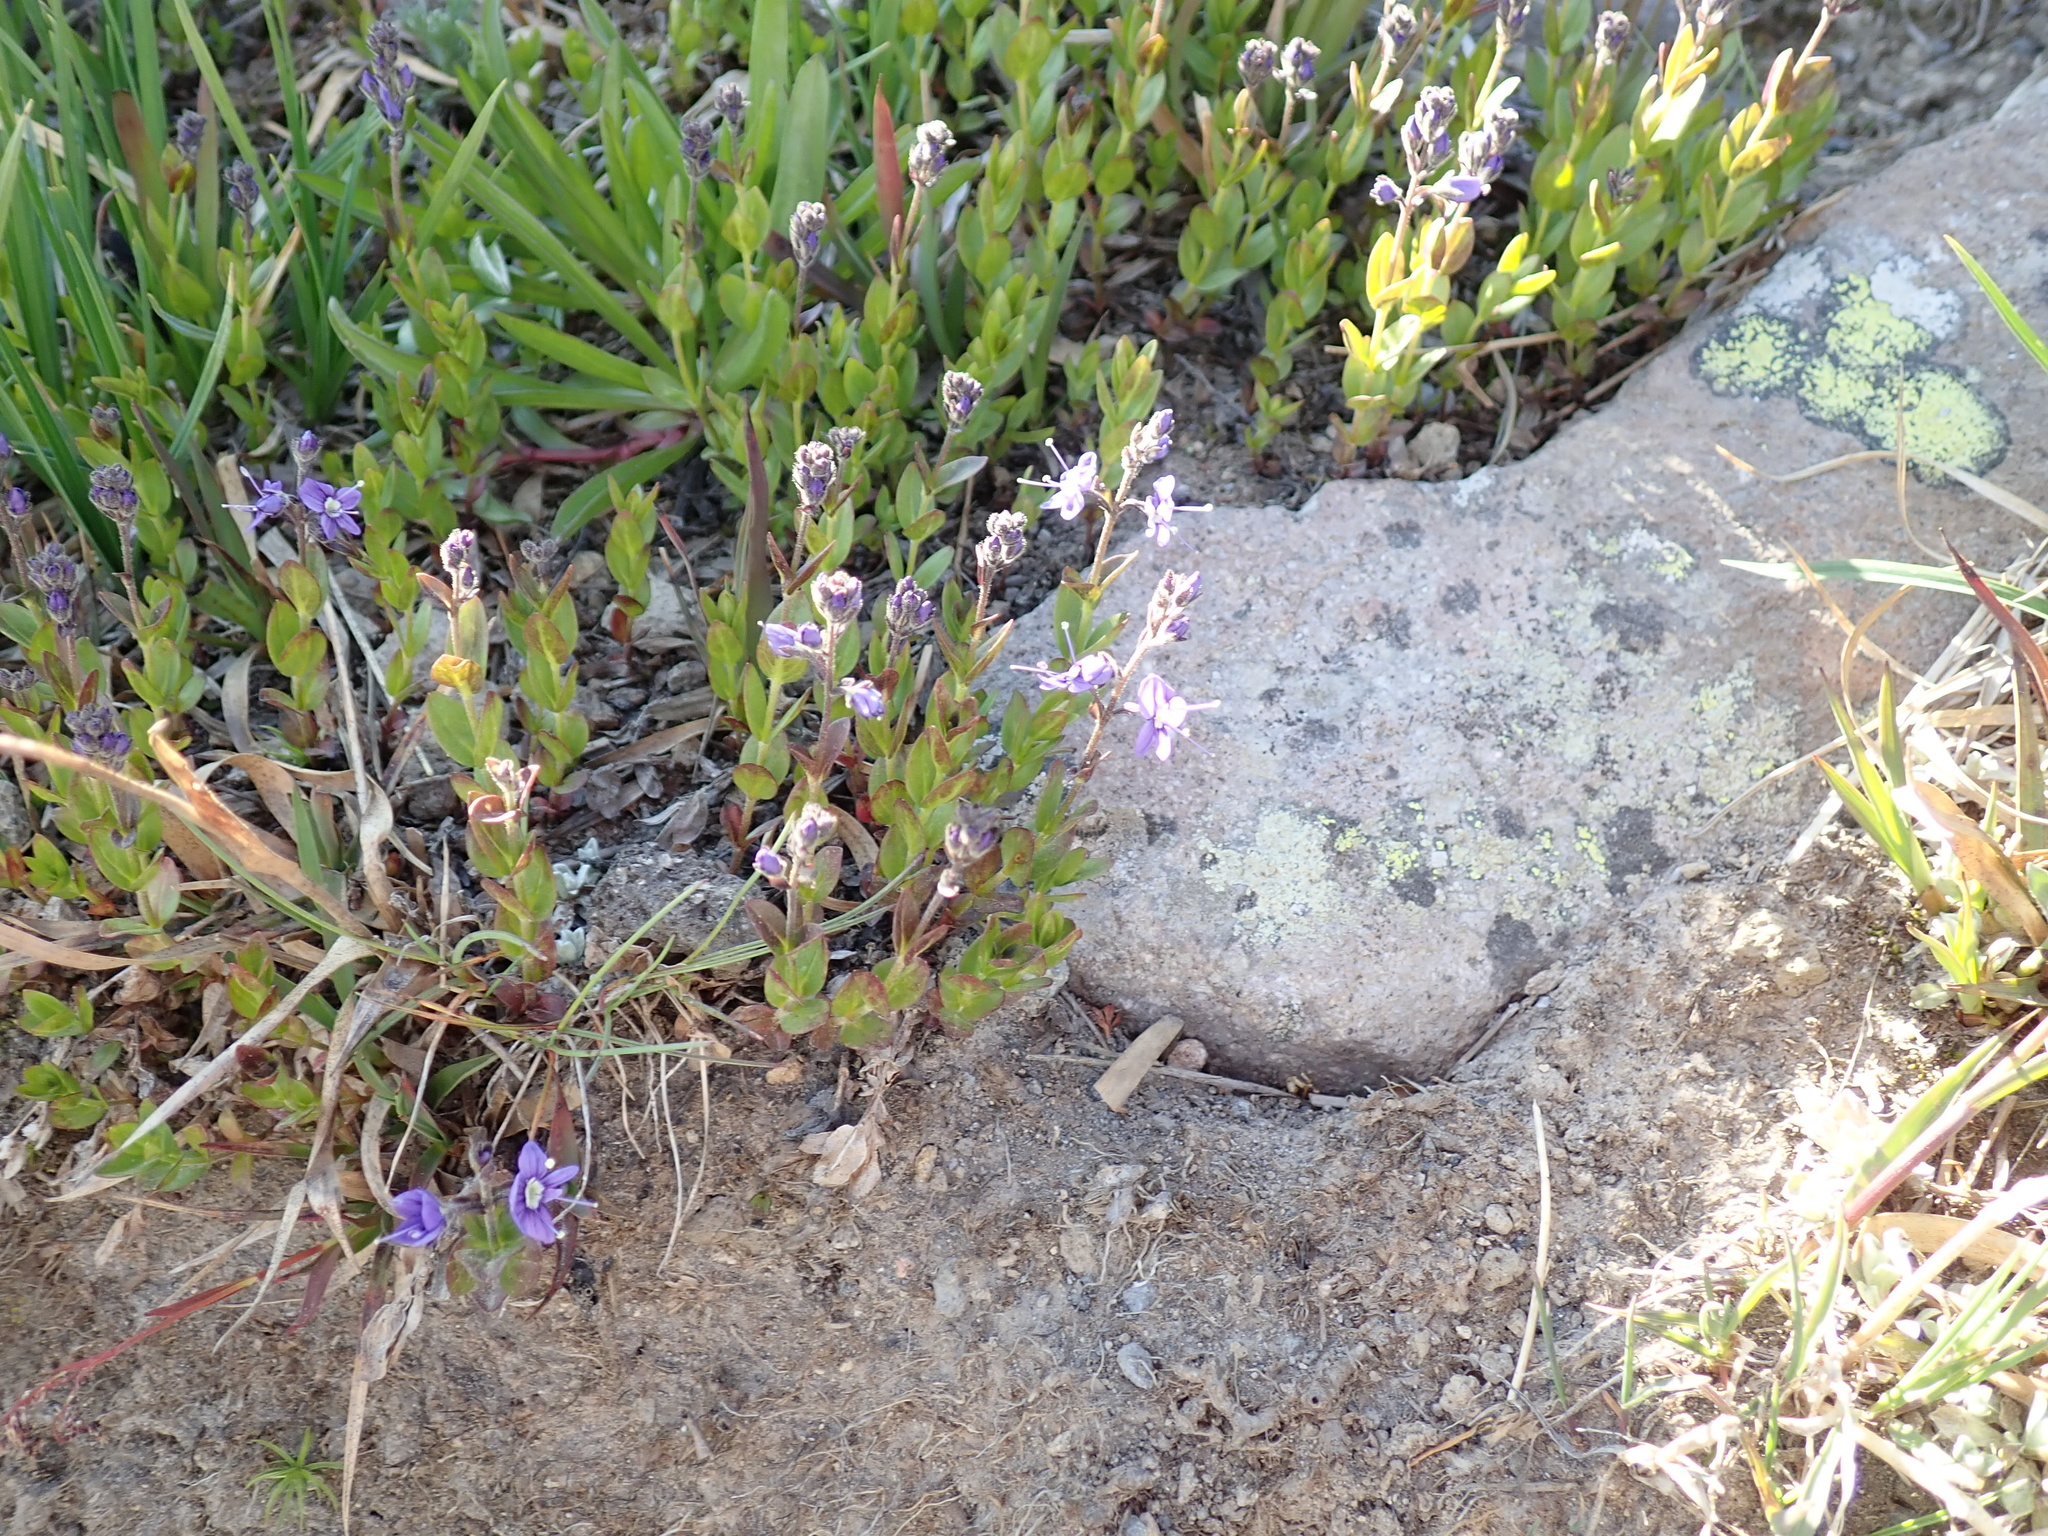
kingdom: Plantae
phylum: Tracheophyta
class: Magnoliopsida
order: Lamiales
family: Plantaginaceae
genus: Veronica
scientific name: Veronica cusickii
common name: Cusick's speedwell
